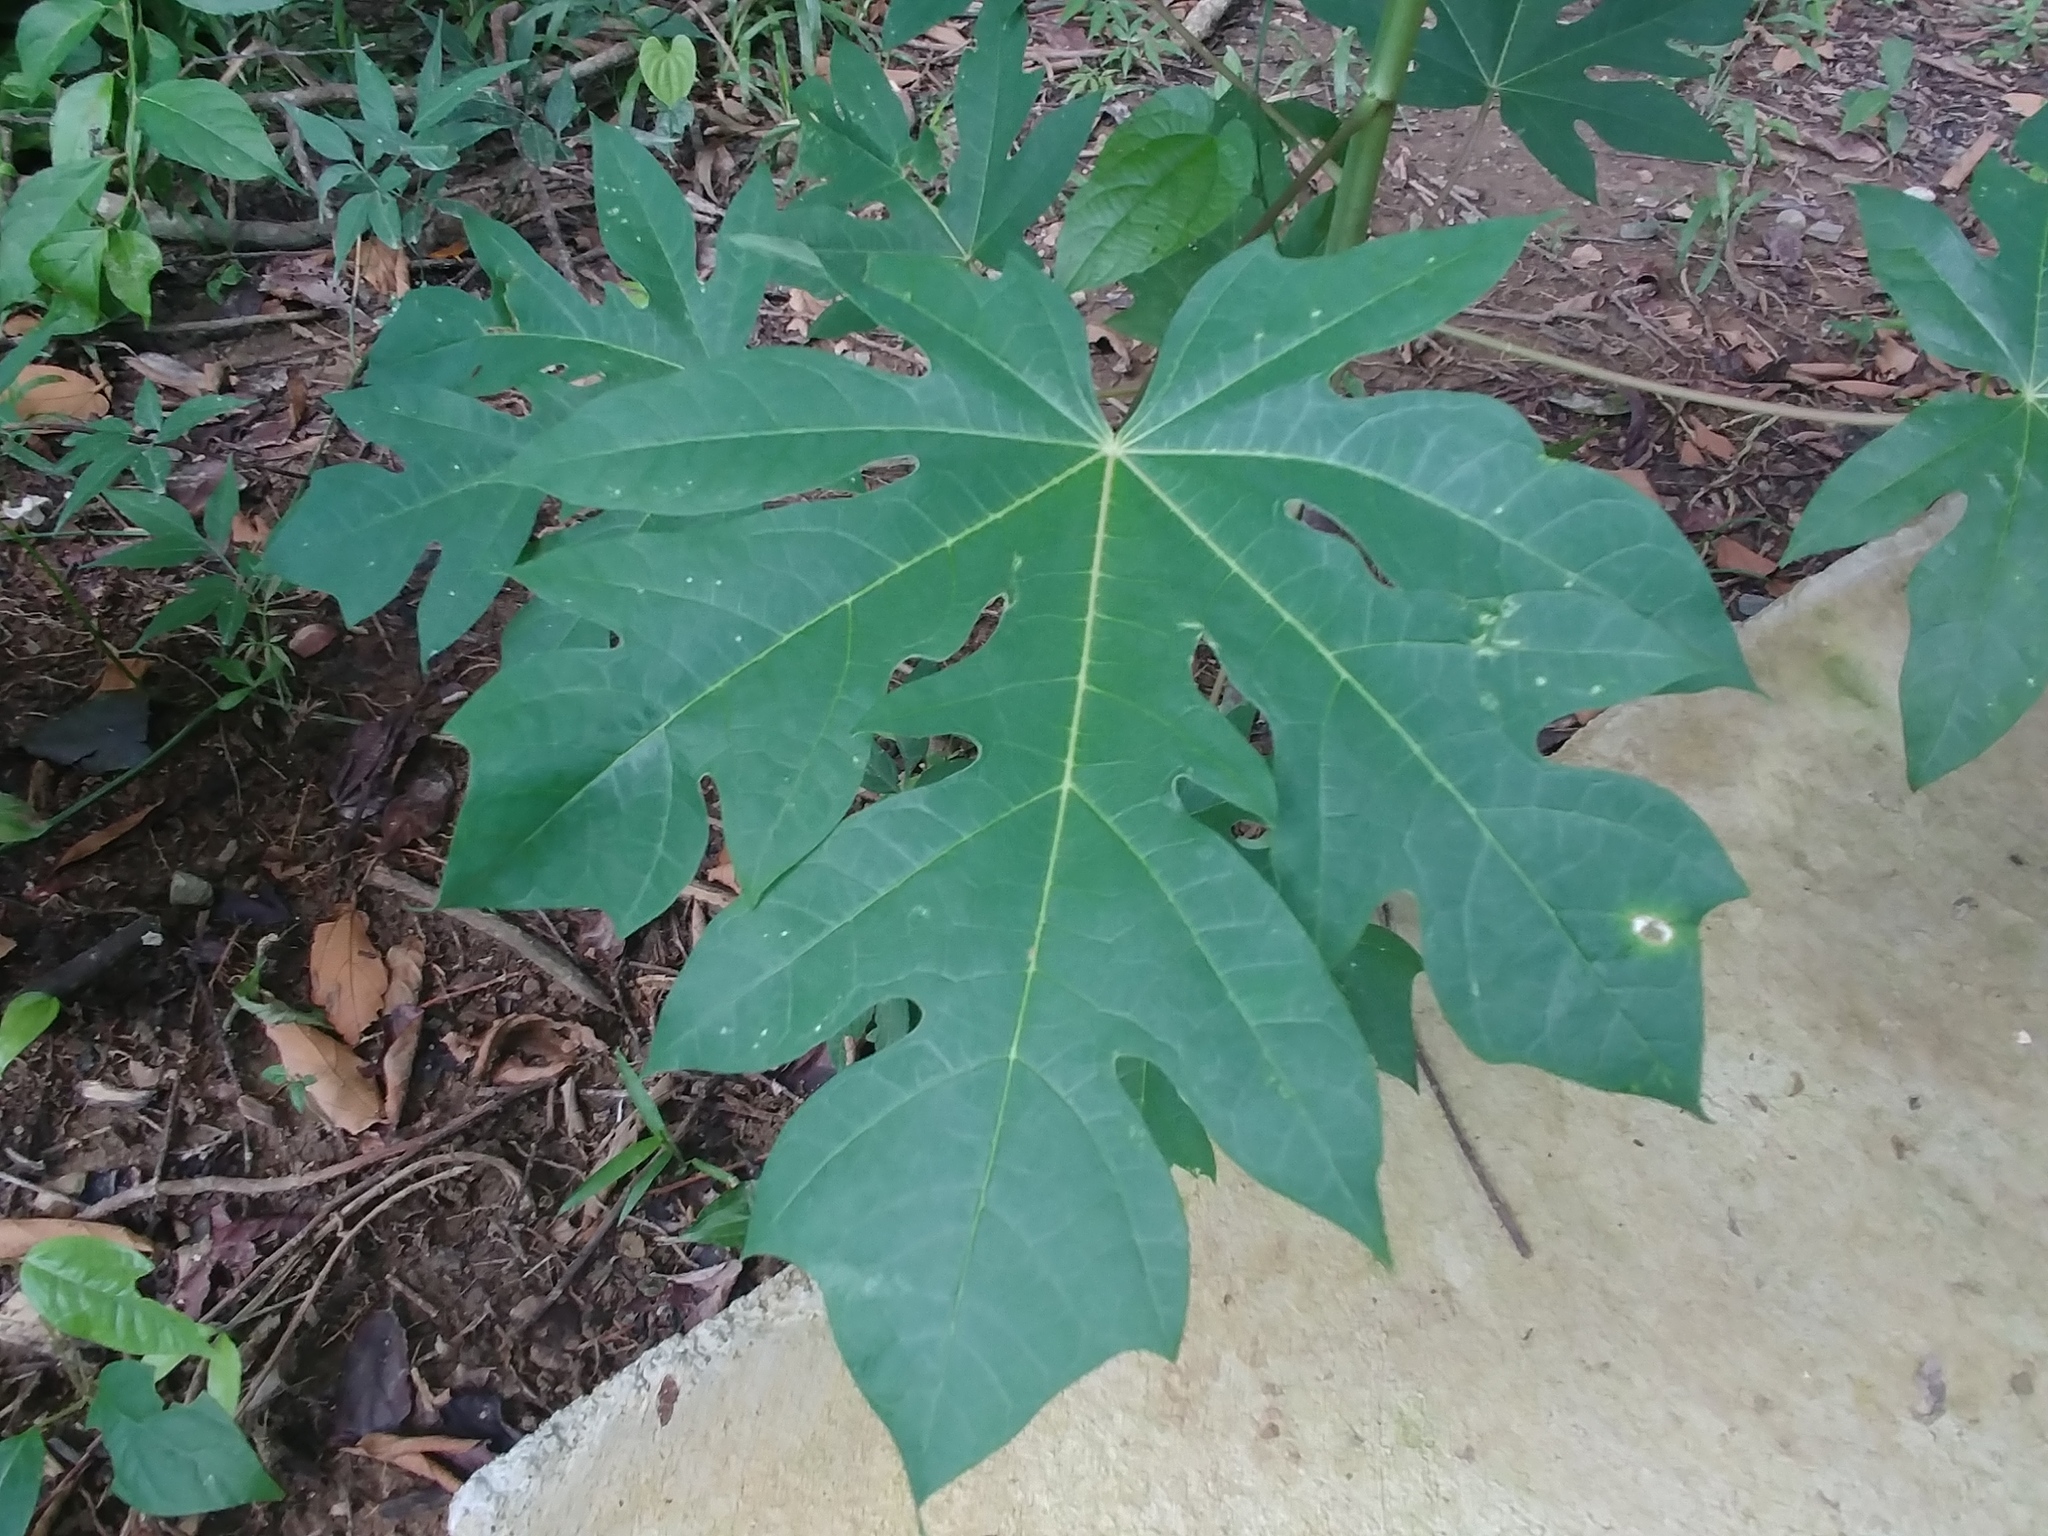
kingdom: Plantae
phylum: Tracheophyta
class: Magnoliopsida
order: Brassicales
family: Caricaceae
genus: Carica
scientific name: Carica papaya
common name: Papaya
